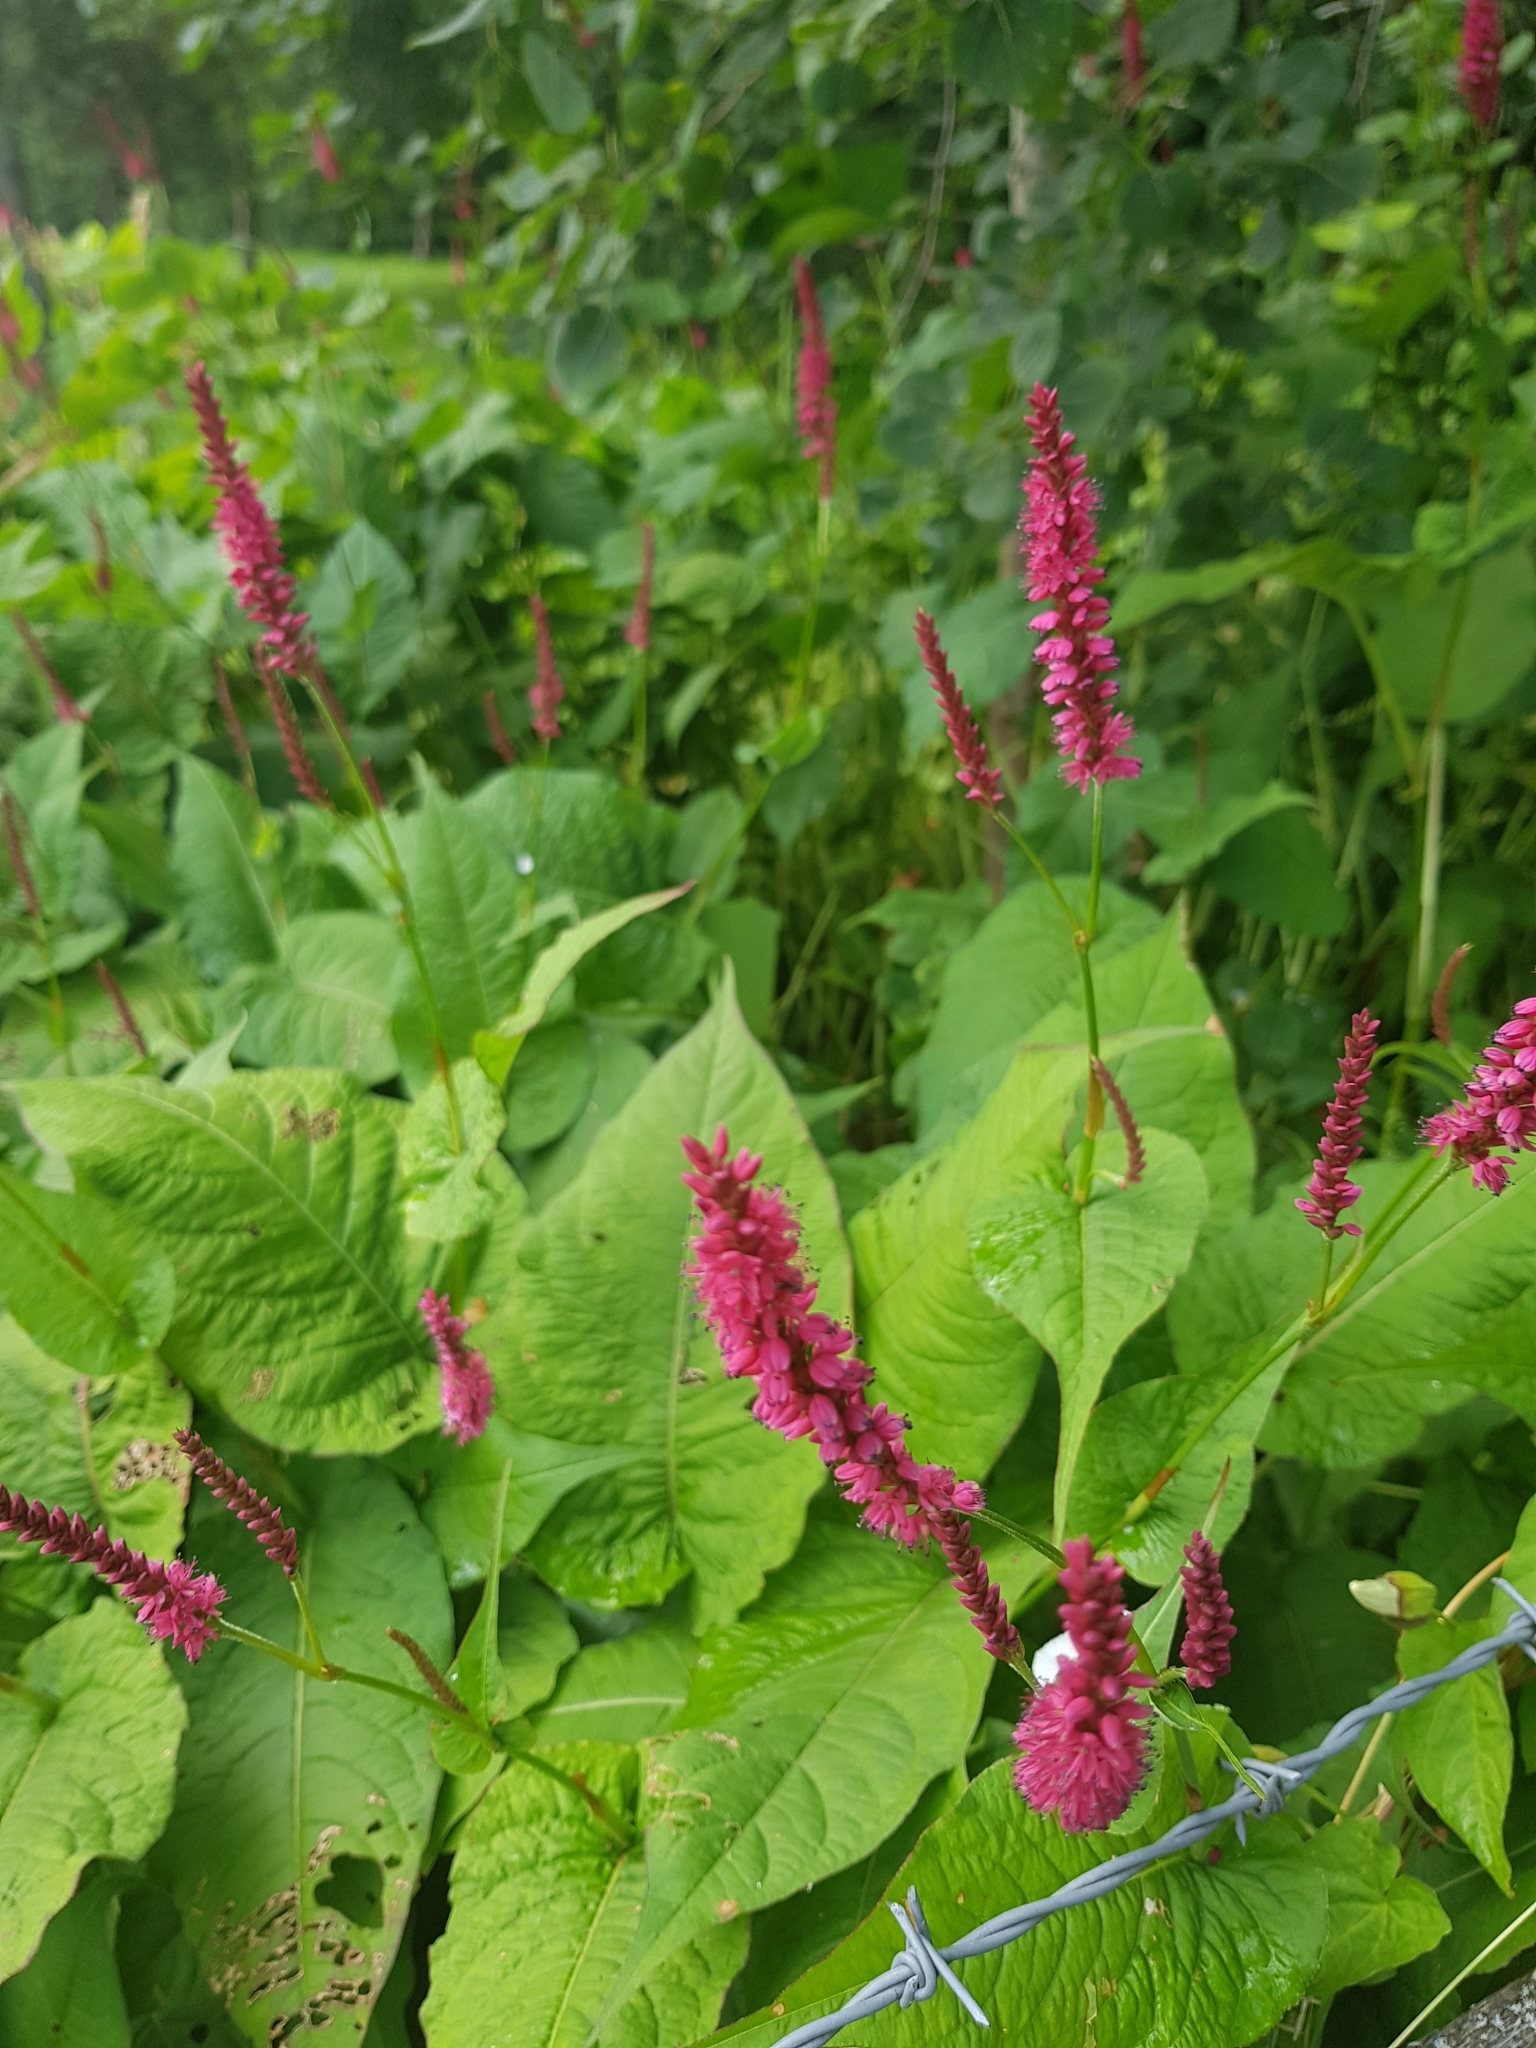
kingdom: Plantae
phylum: Tracheophyta
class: Magnoliopsida
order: Caryophyllales
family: Polygonaceae
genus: Bistorta
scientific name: Bistorta amplexicaulis
